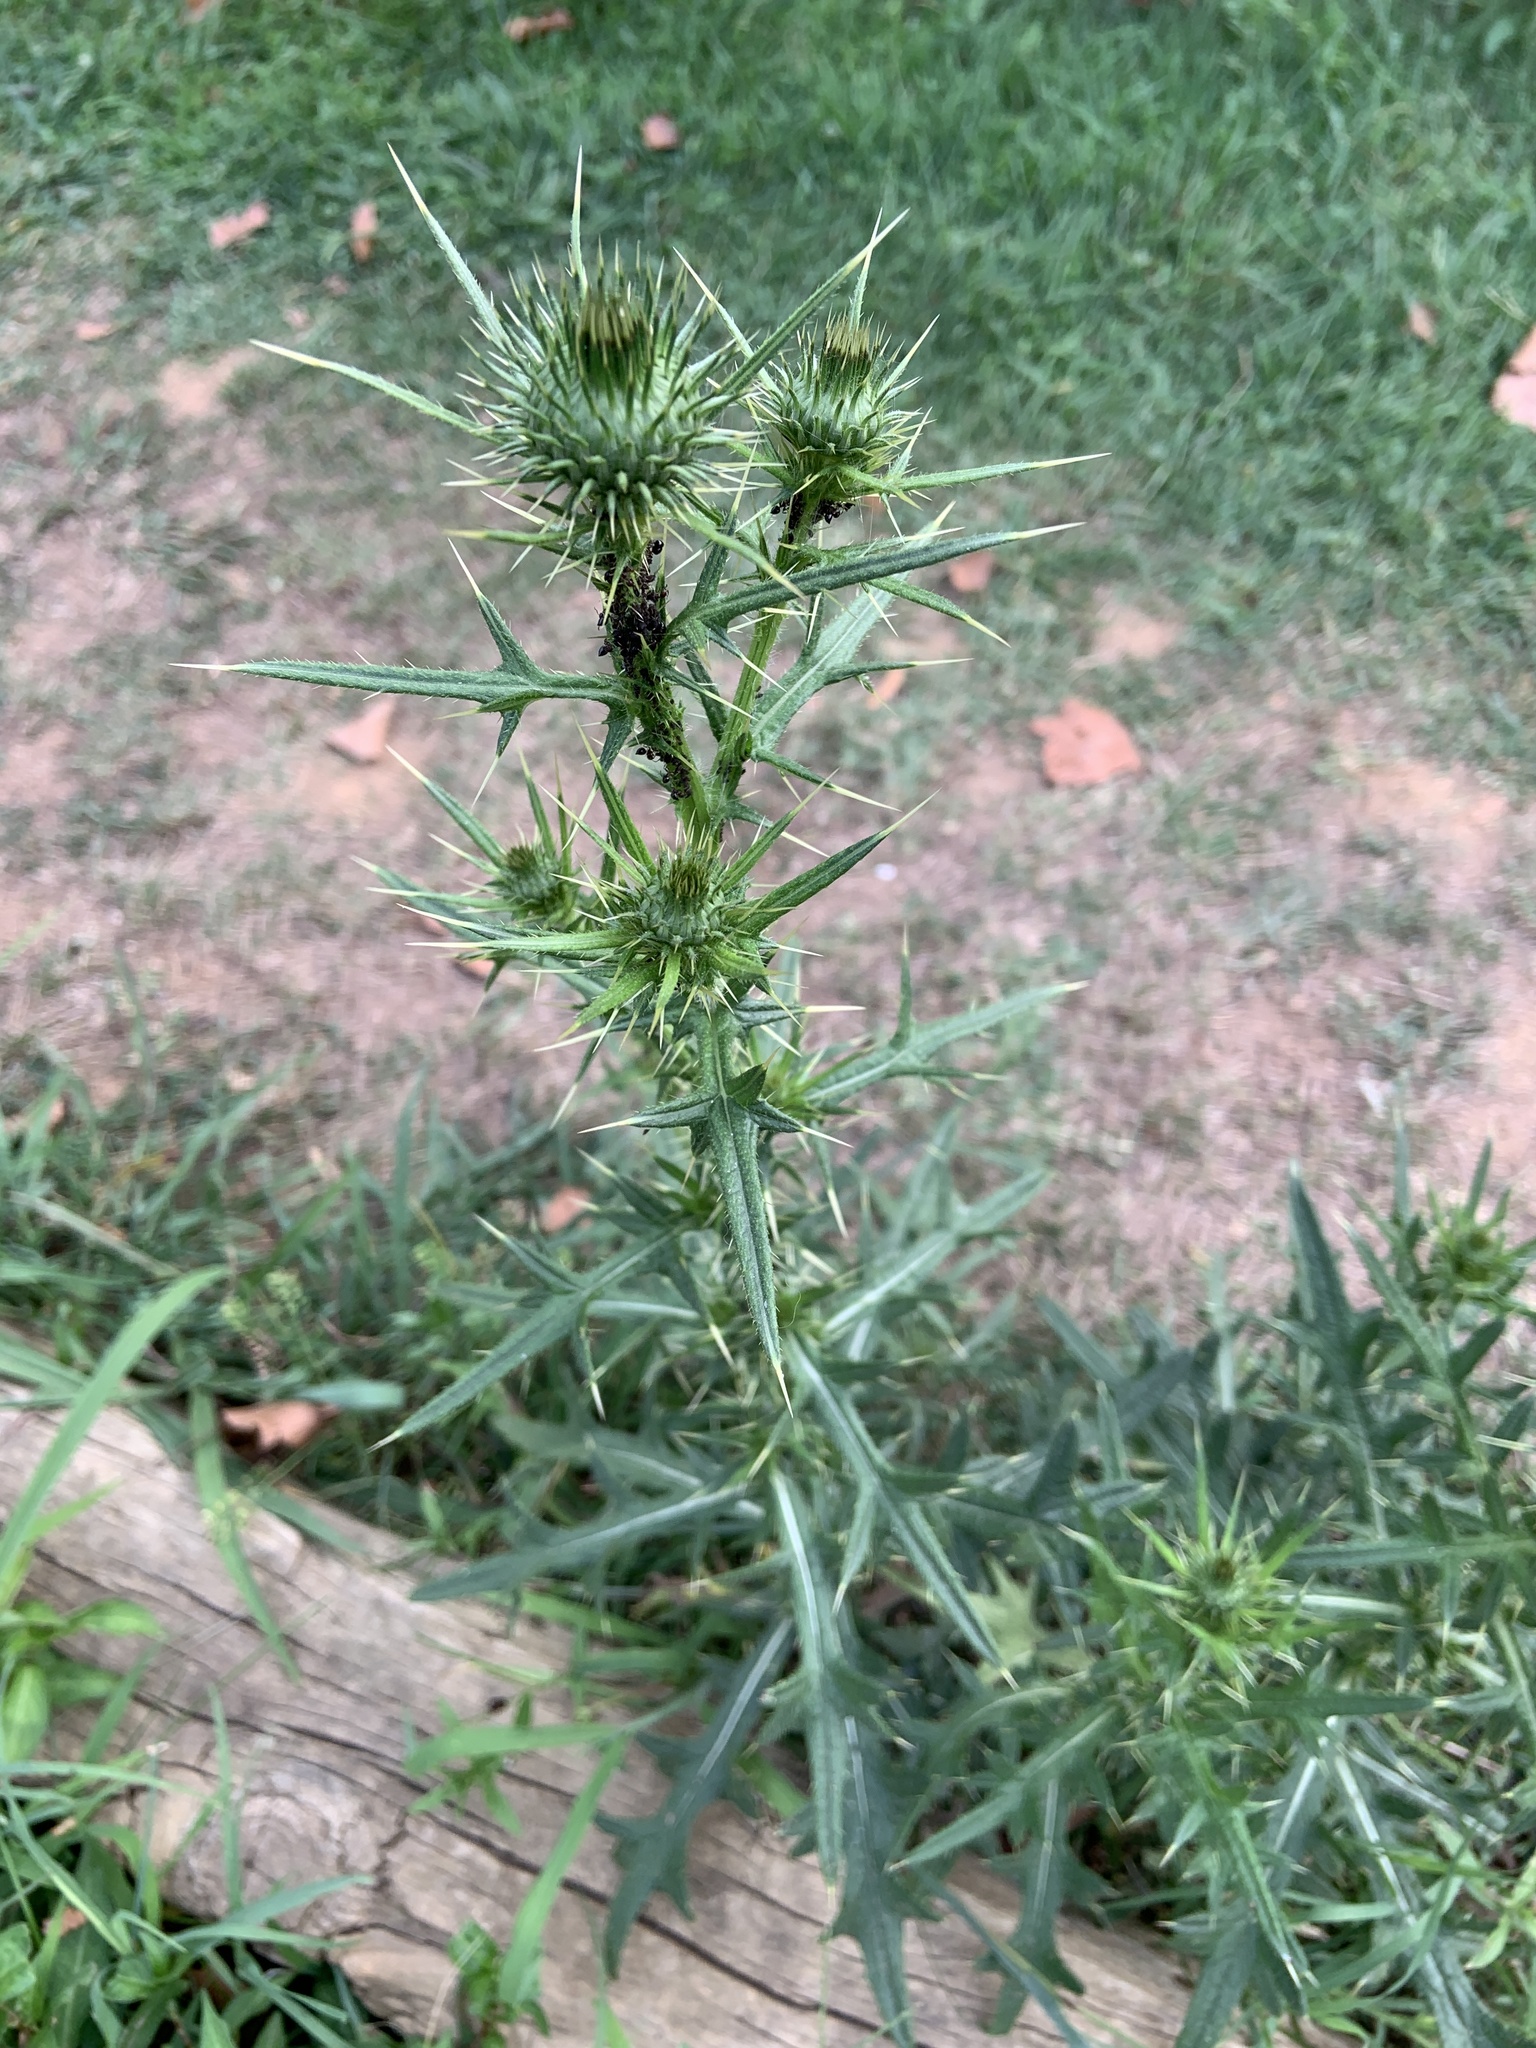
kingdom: Plantae
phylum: Tracheophyta
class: Magnoliopsida
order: Asterales
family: Asteraceae
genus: Cirsium
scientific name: Cirsium vulgare
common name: Bull thistle
